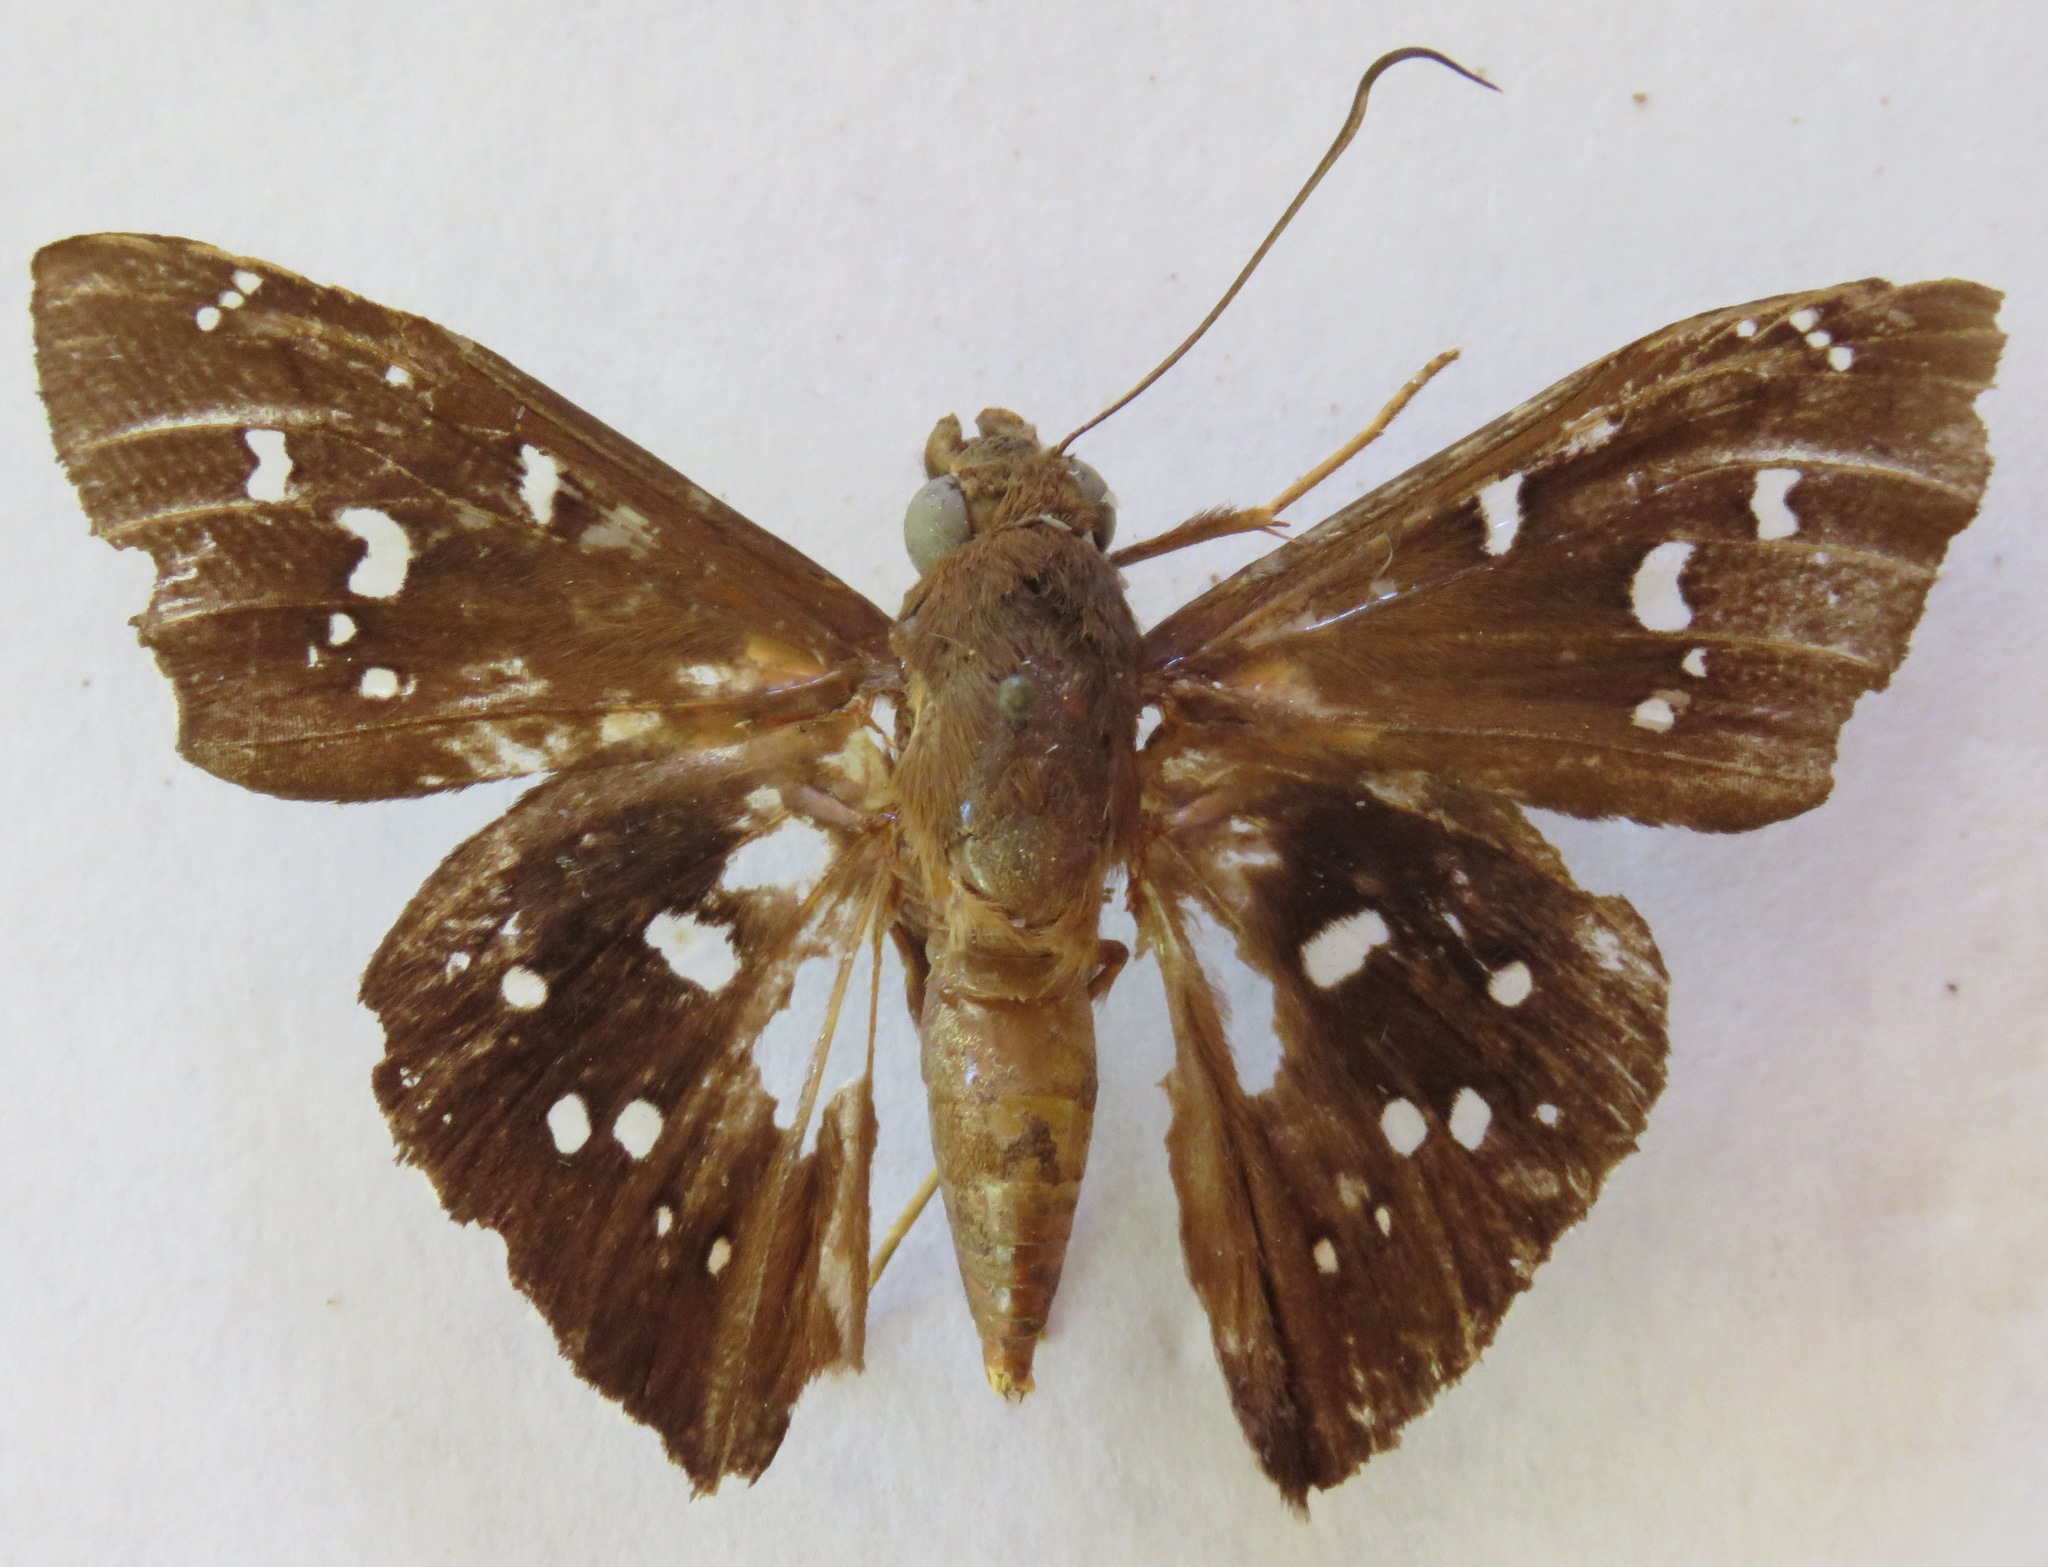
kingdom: Animalia
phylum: Arthropoda
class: Insecta
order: Lepidoptera
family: Hesperiidae
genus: Bungalotis
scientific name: Bungalotis erythus
